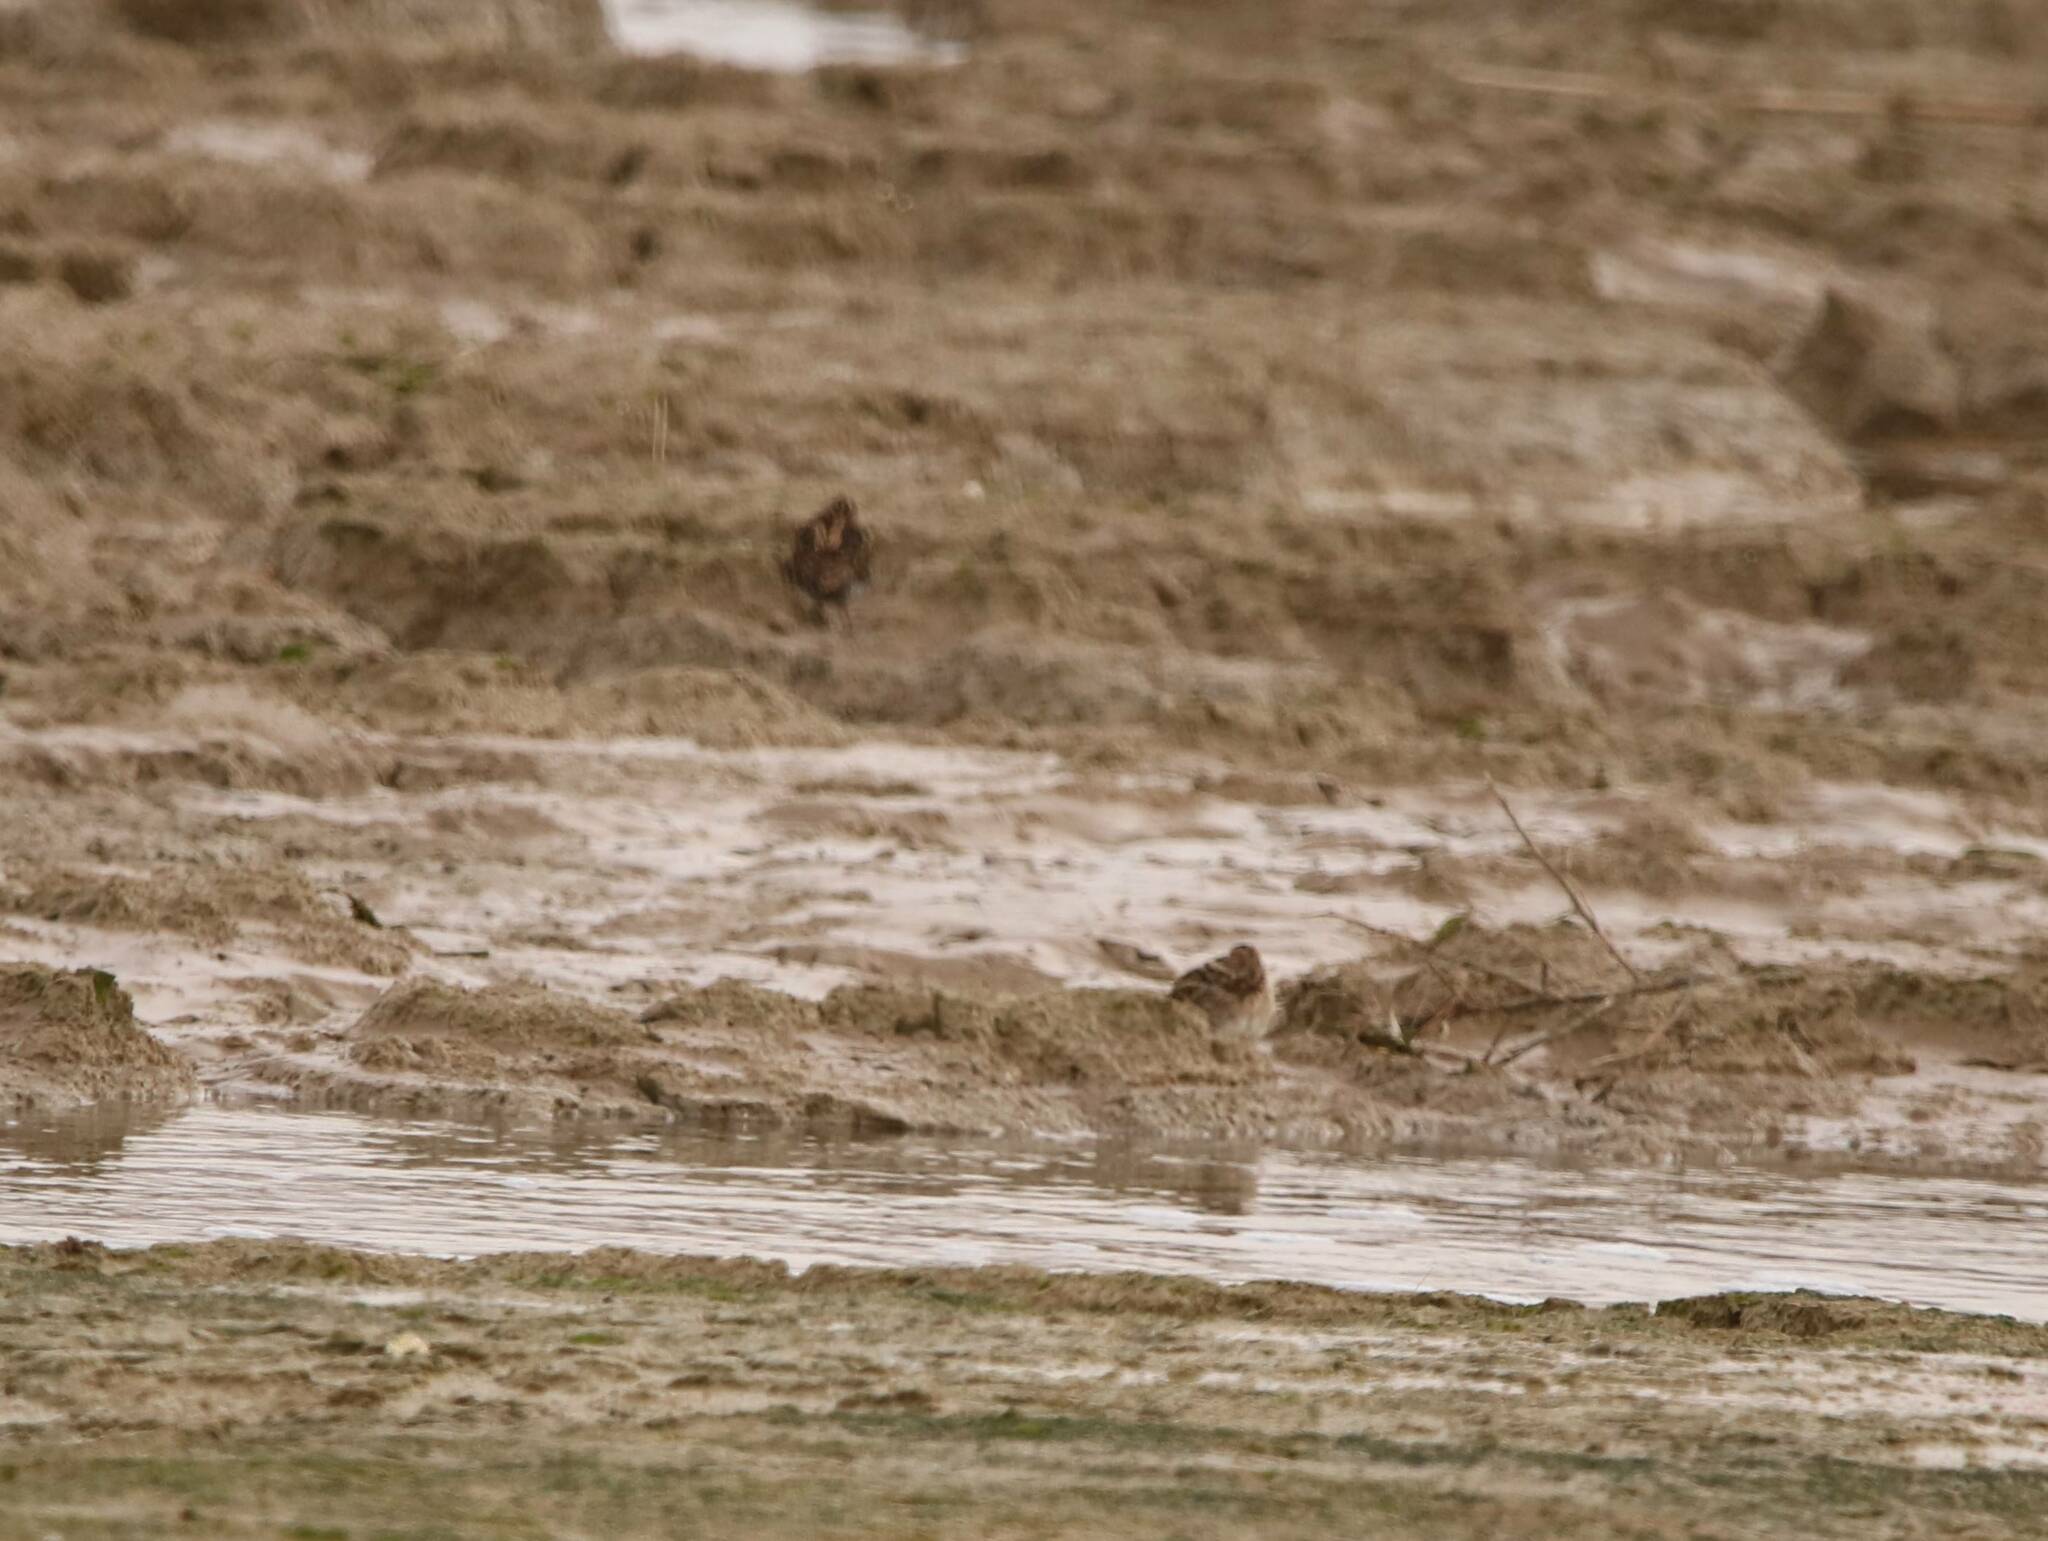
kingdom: Animalia
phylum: Chordata
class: Aves
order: Charadriiformes
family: Scolopacidae
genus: Gallinago
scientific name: Gallinago gallinago
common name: Common snipe
